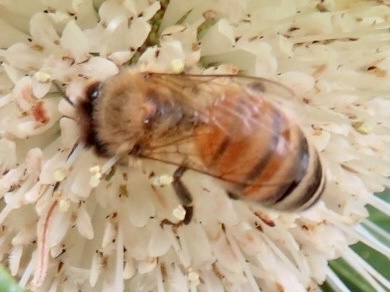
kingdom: Animalia
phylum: Arthropoda
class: Insecta
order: Hymenoptera
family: Apidae
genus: Apis
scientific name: Apis mellifera
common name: Honey bee
